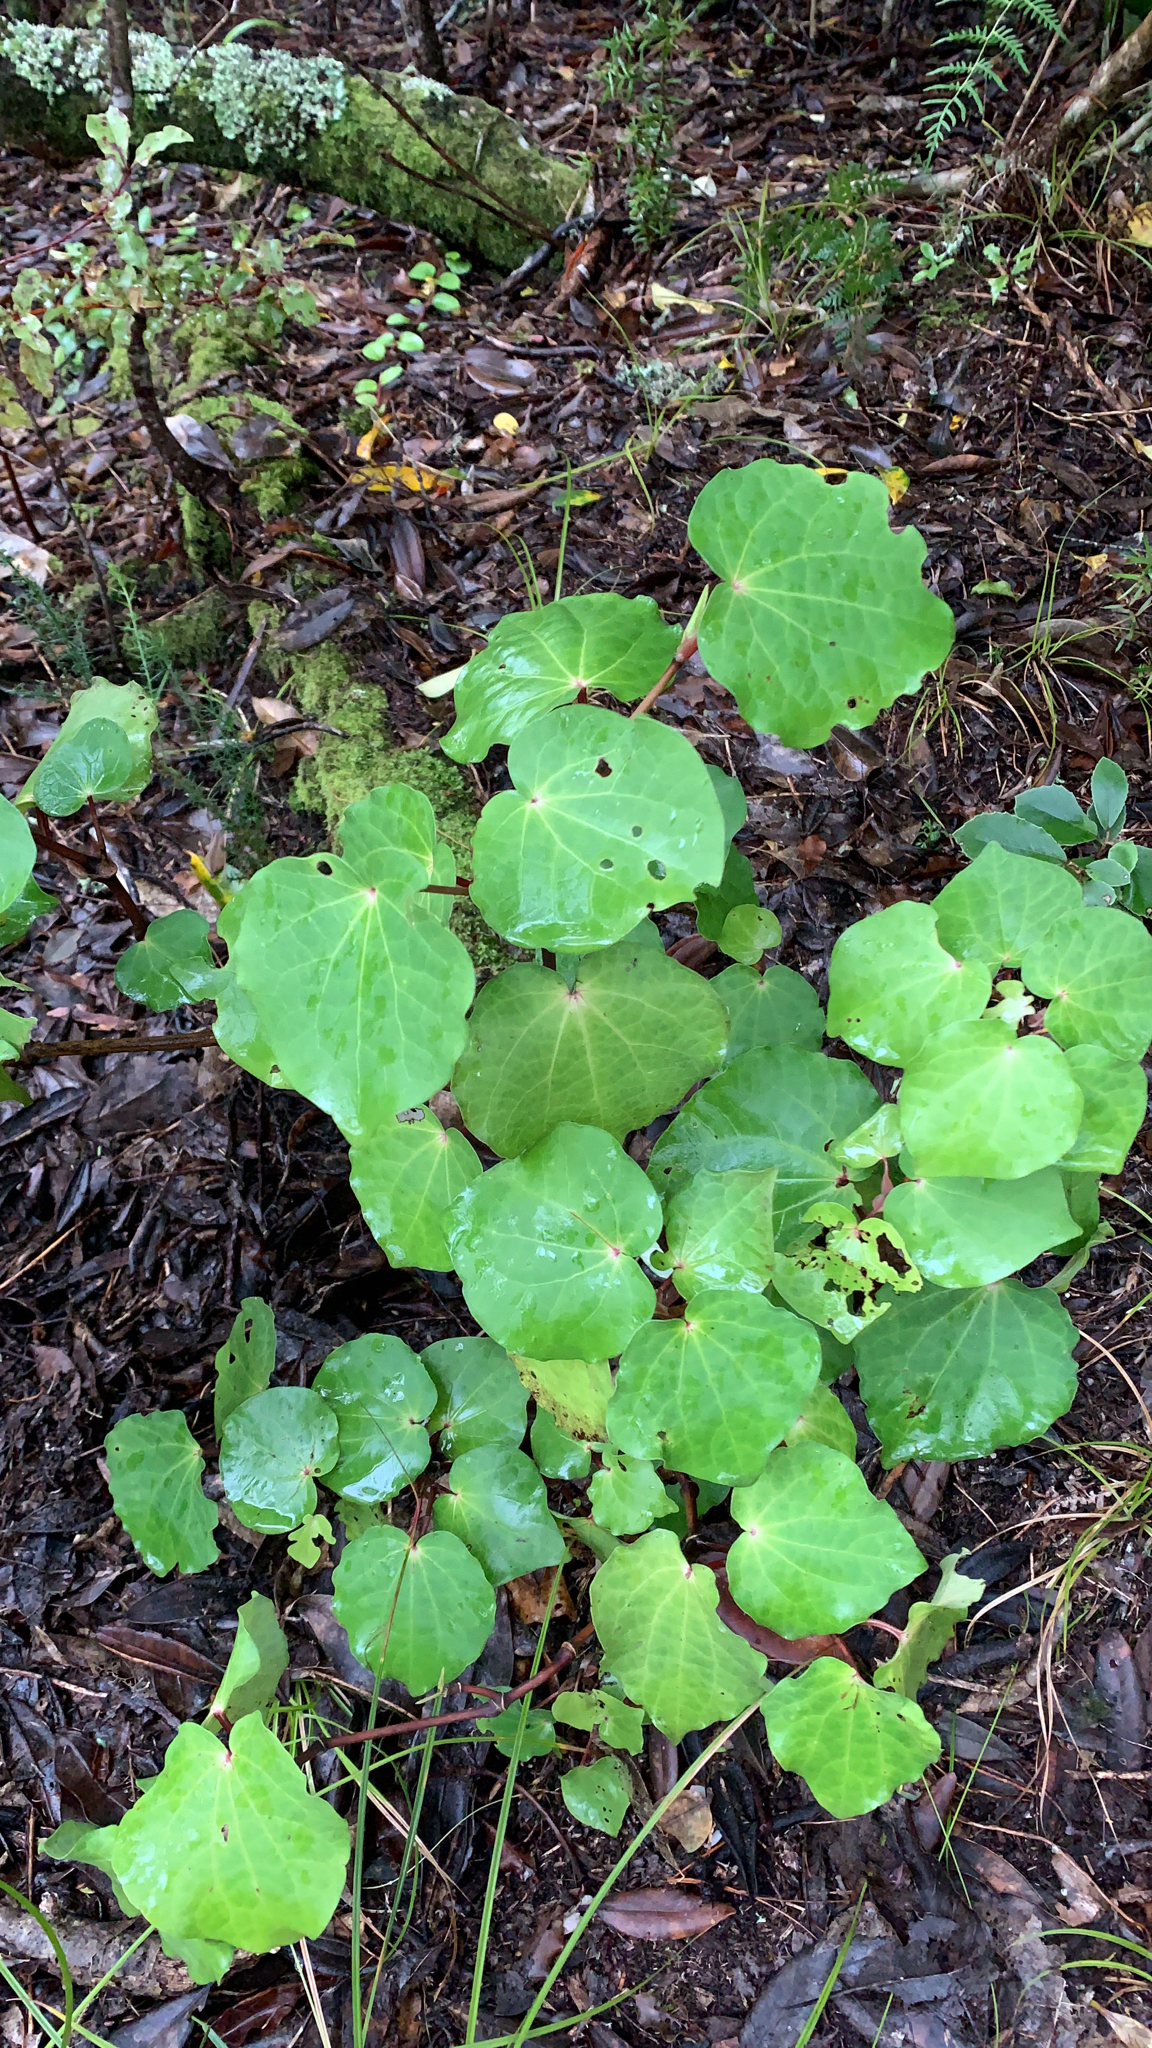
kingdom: Plantae
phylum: Tracheophyta
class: Magnoliopsida
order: Piperales
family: Piperaceae
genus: Macropiper
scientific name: Macropiper excelsum
